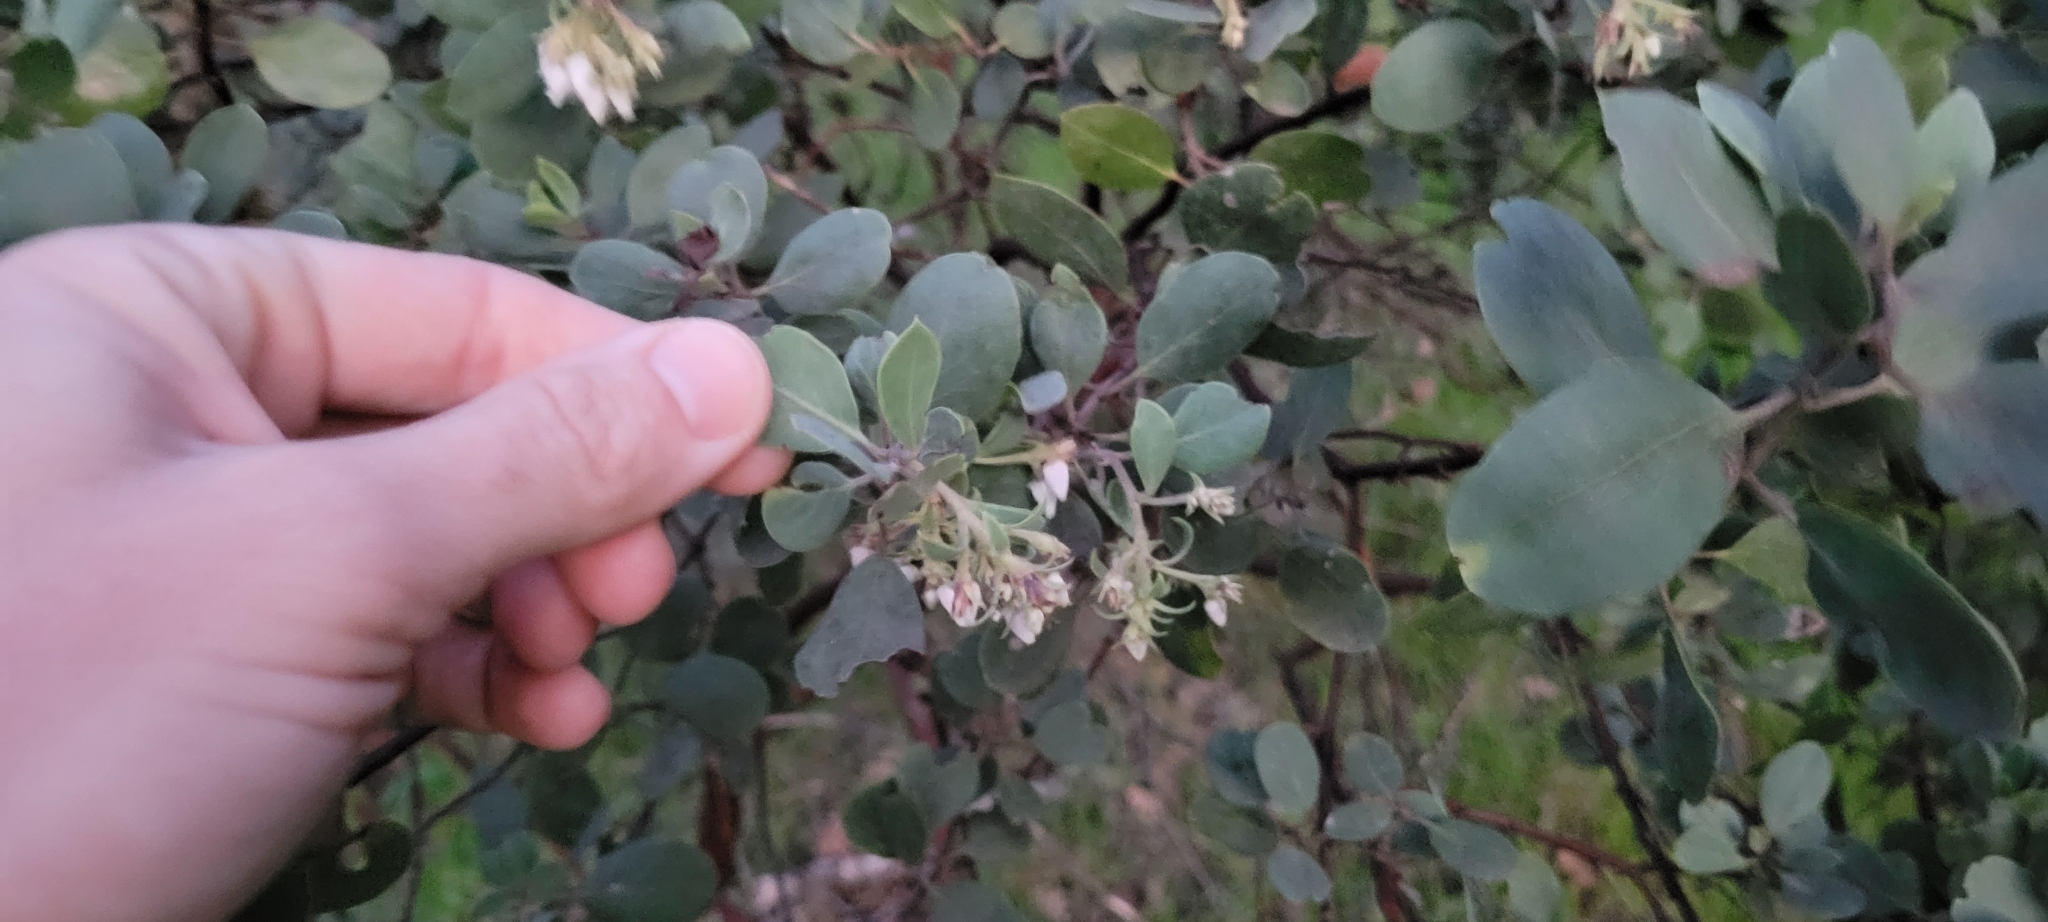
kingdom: Plantae
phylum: Tracheophyta
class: Magnoliopsida
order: Ericales
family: Ericaceae
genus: Arctostaphylos
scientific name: Arctostaphylos glandulosa
